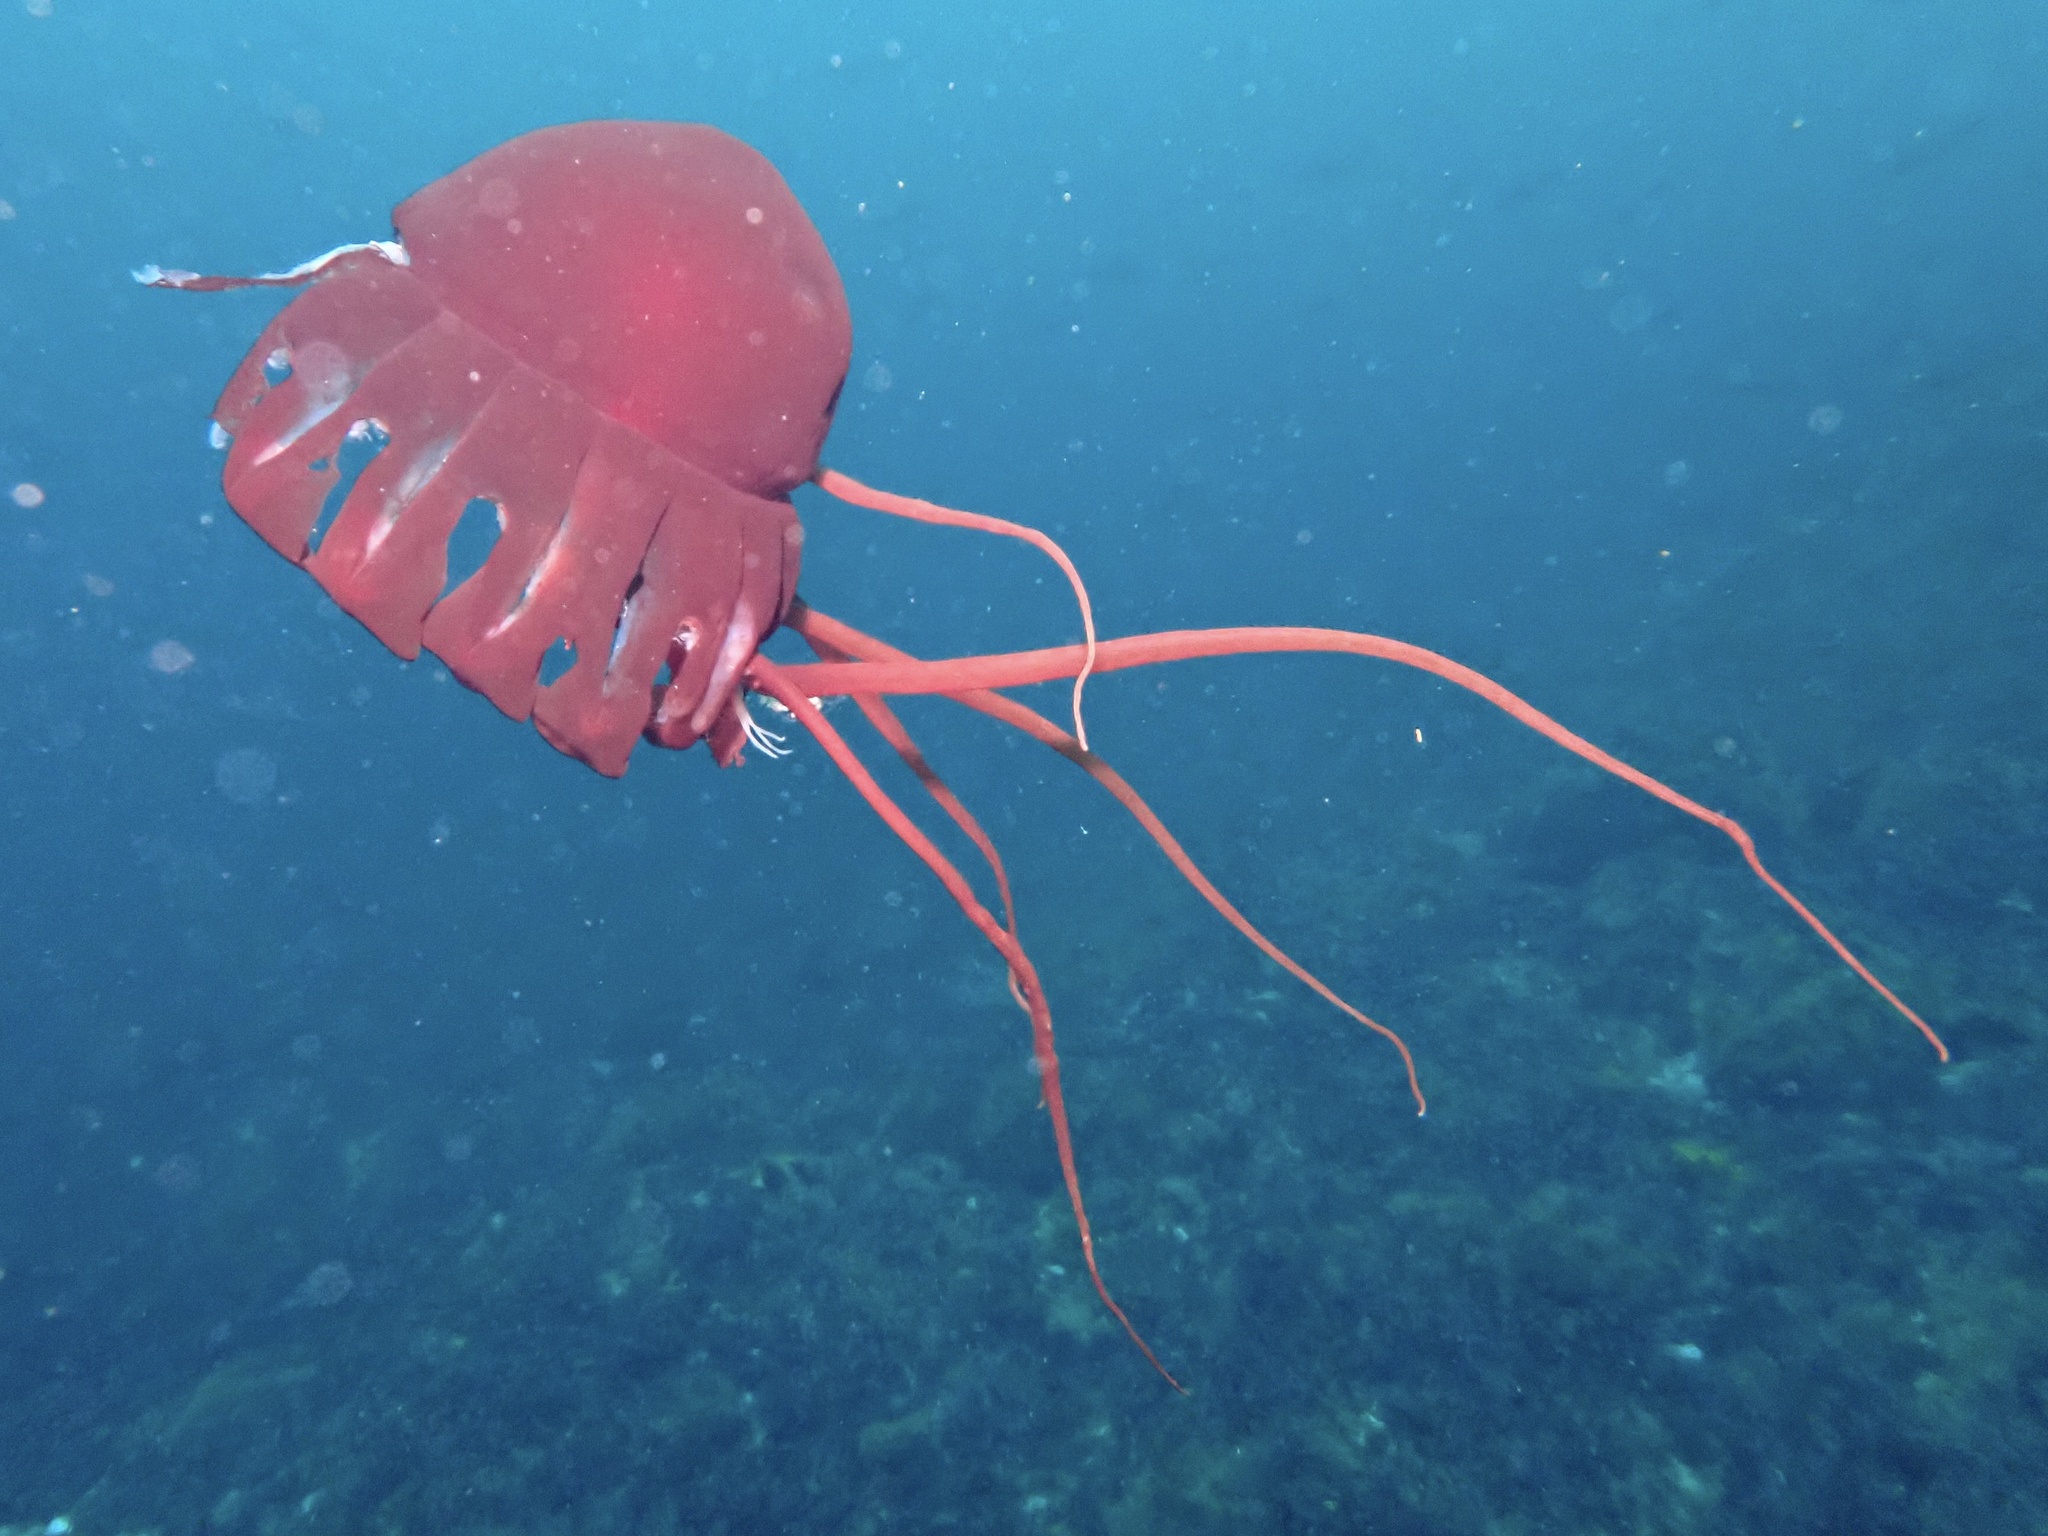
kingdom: Animalia
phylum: Cnidaria
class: Scyphozoa
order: Coronatae
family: Periphyllidae
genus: Periphylla
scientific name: Periphylla periphylla
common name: Helmet jelly
